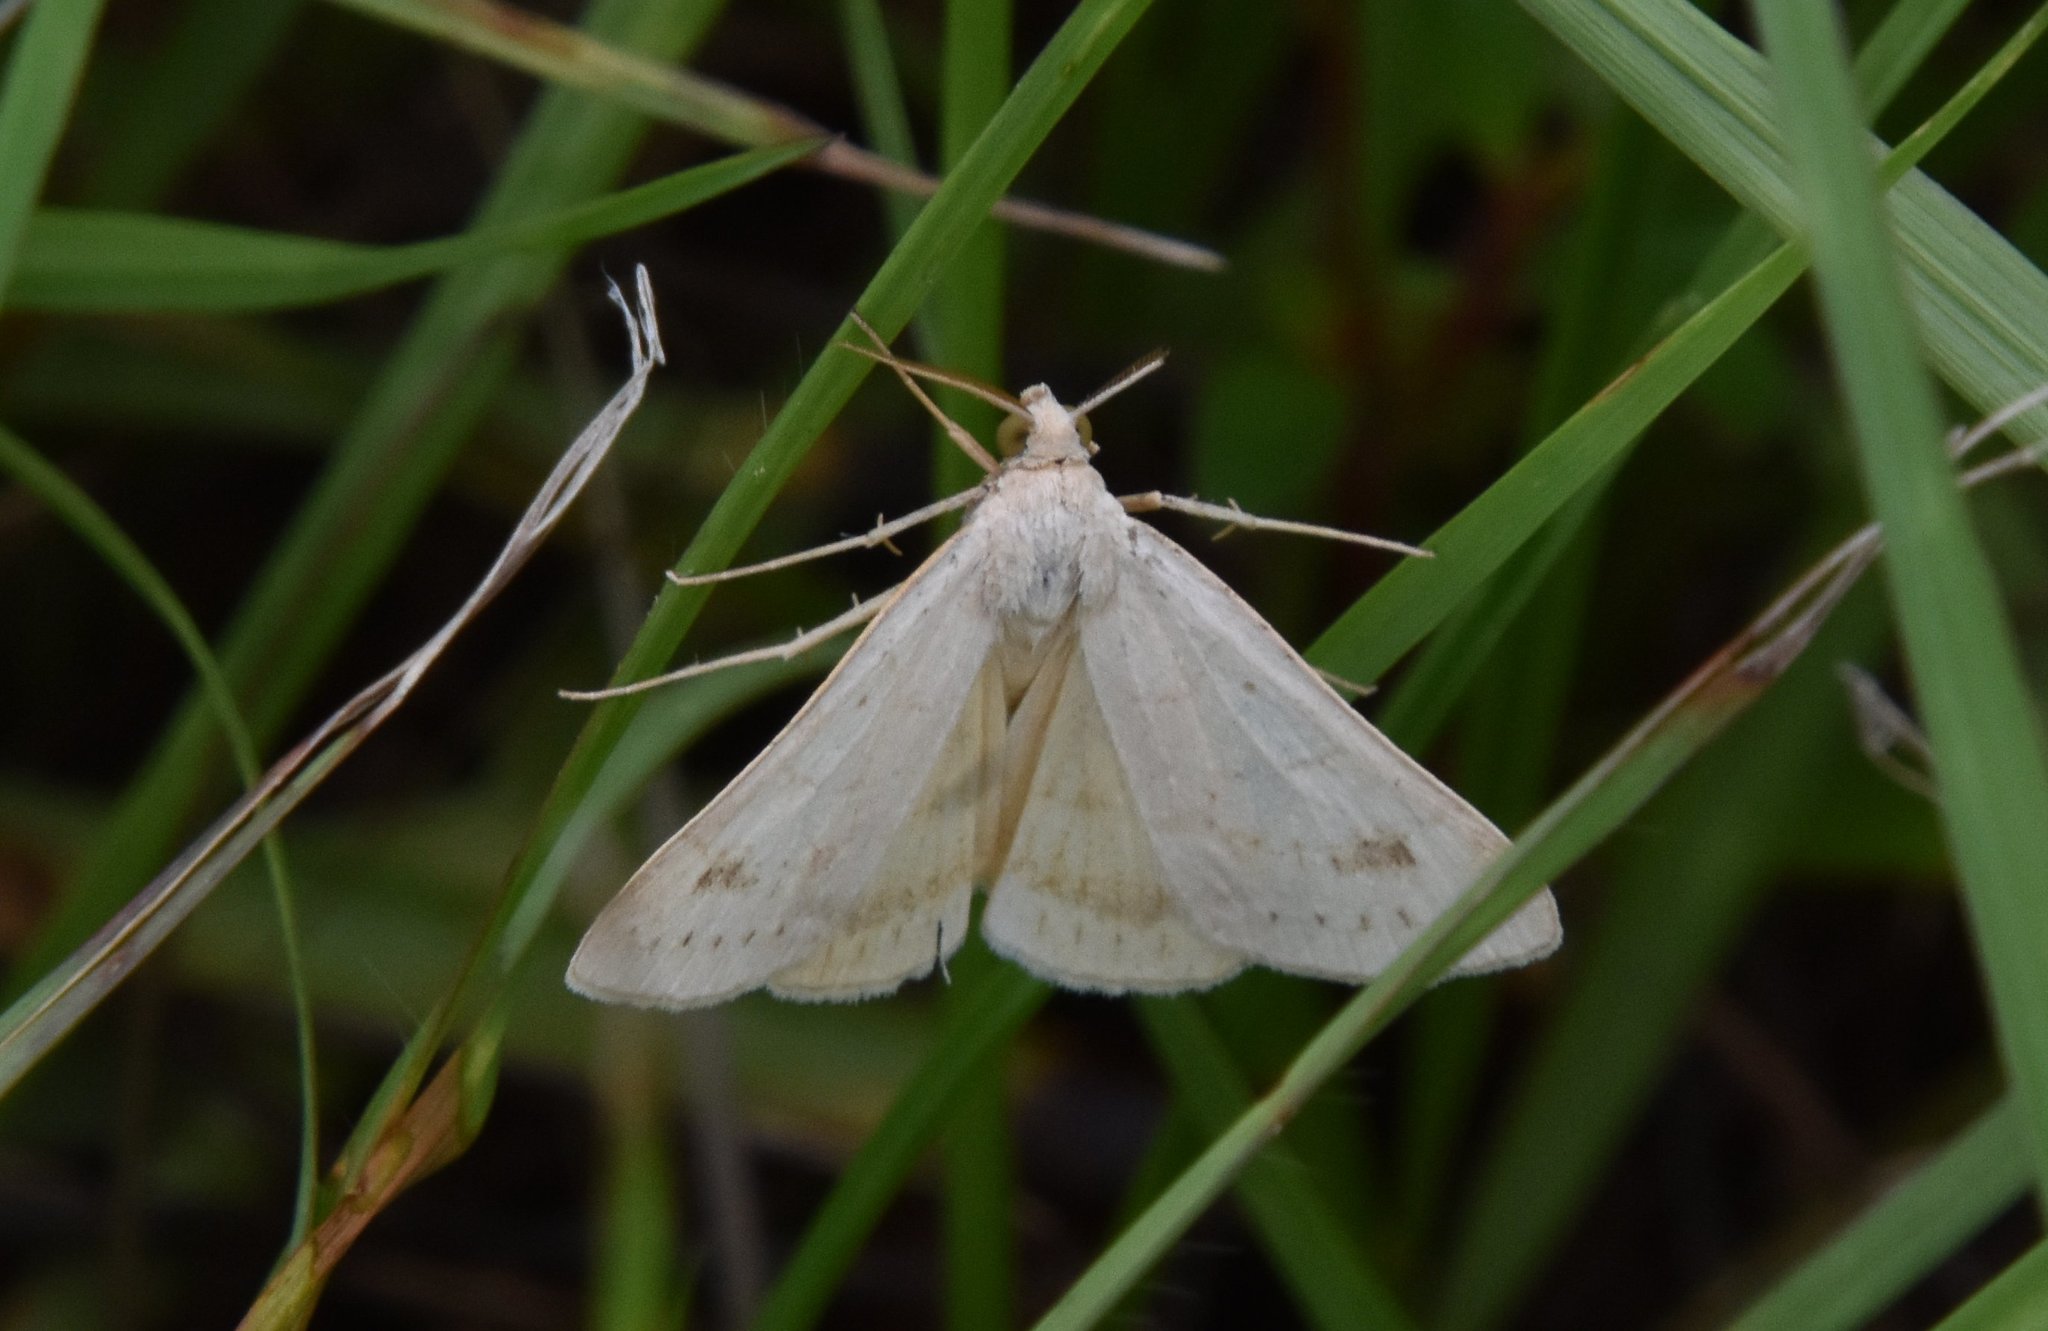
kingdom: Animalia
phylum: Arthropoda
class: Insecta
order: Lepidoptera
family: Erebidae
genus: Caenurgia
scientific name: Caenurgia chloropha
